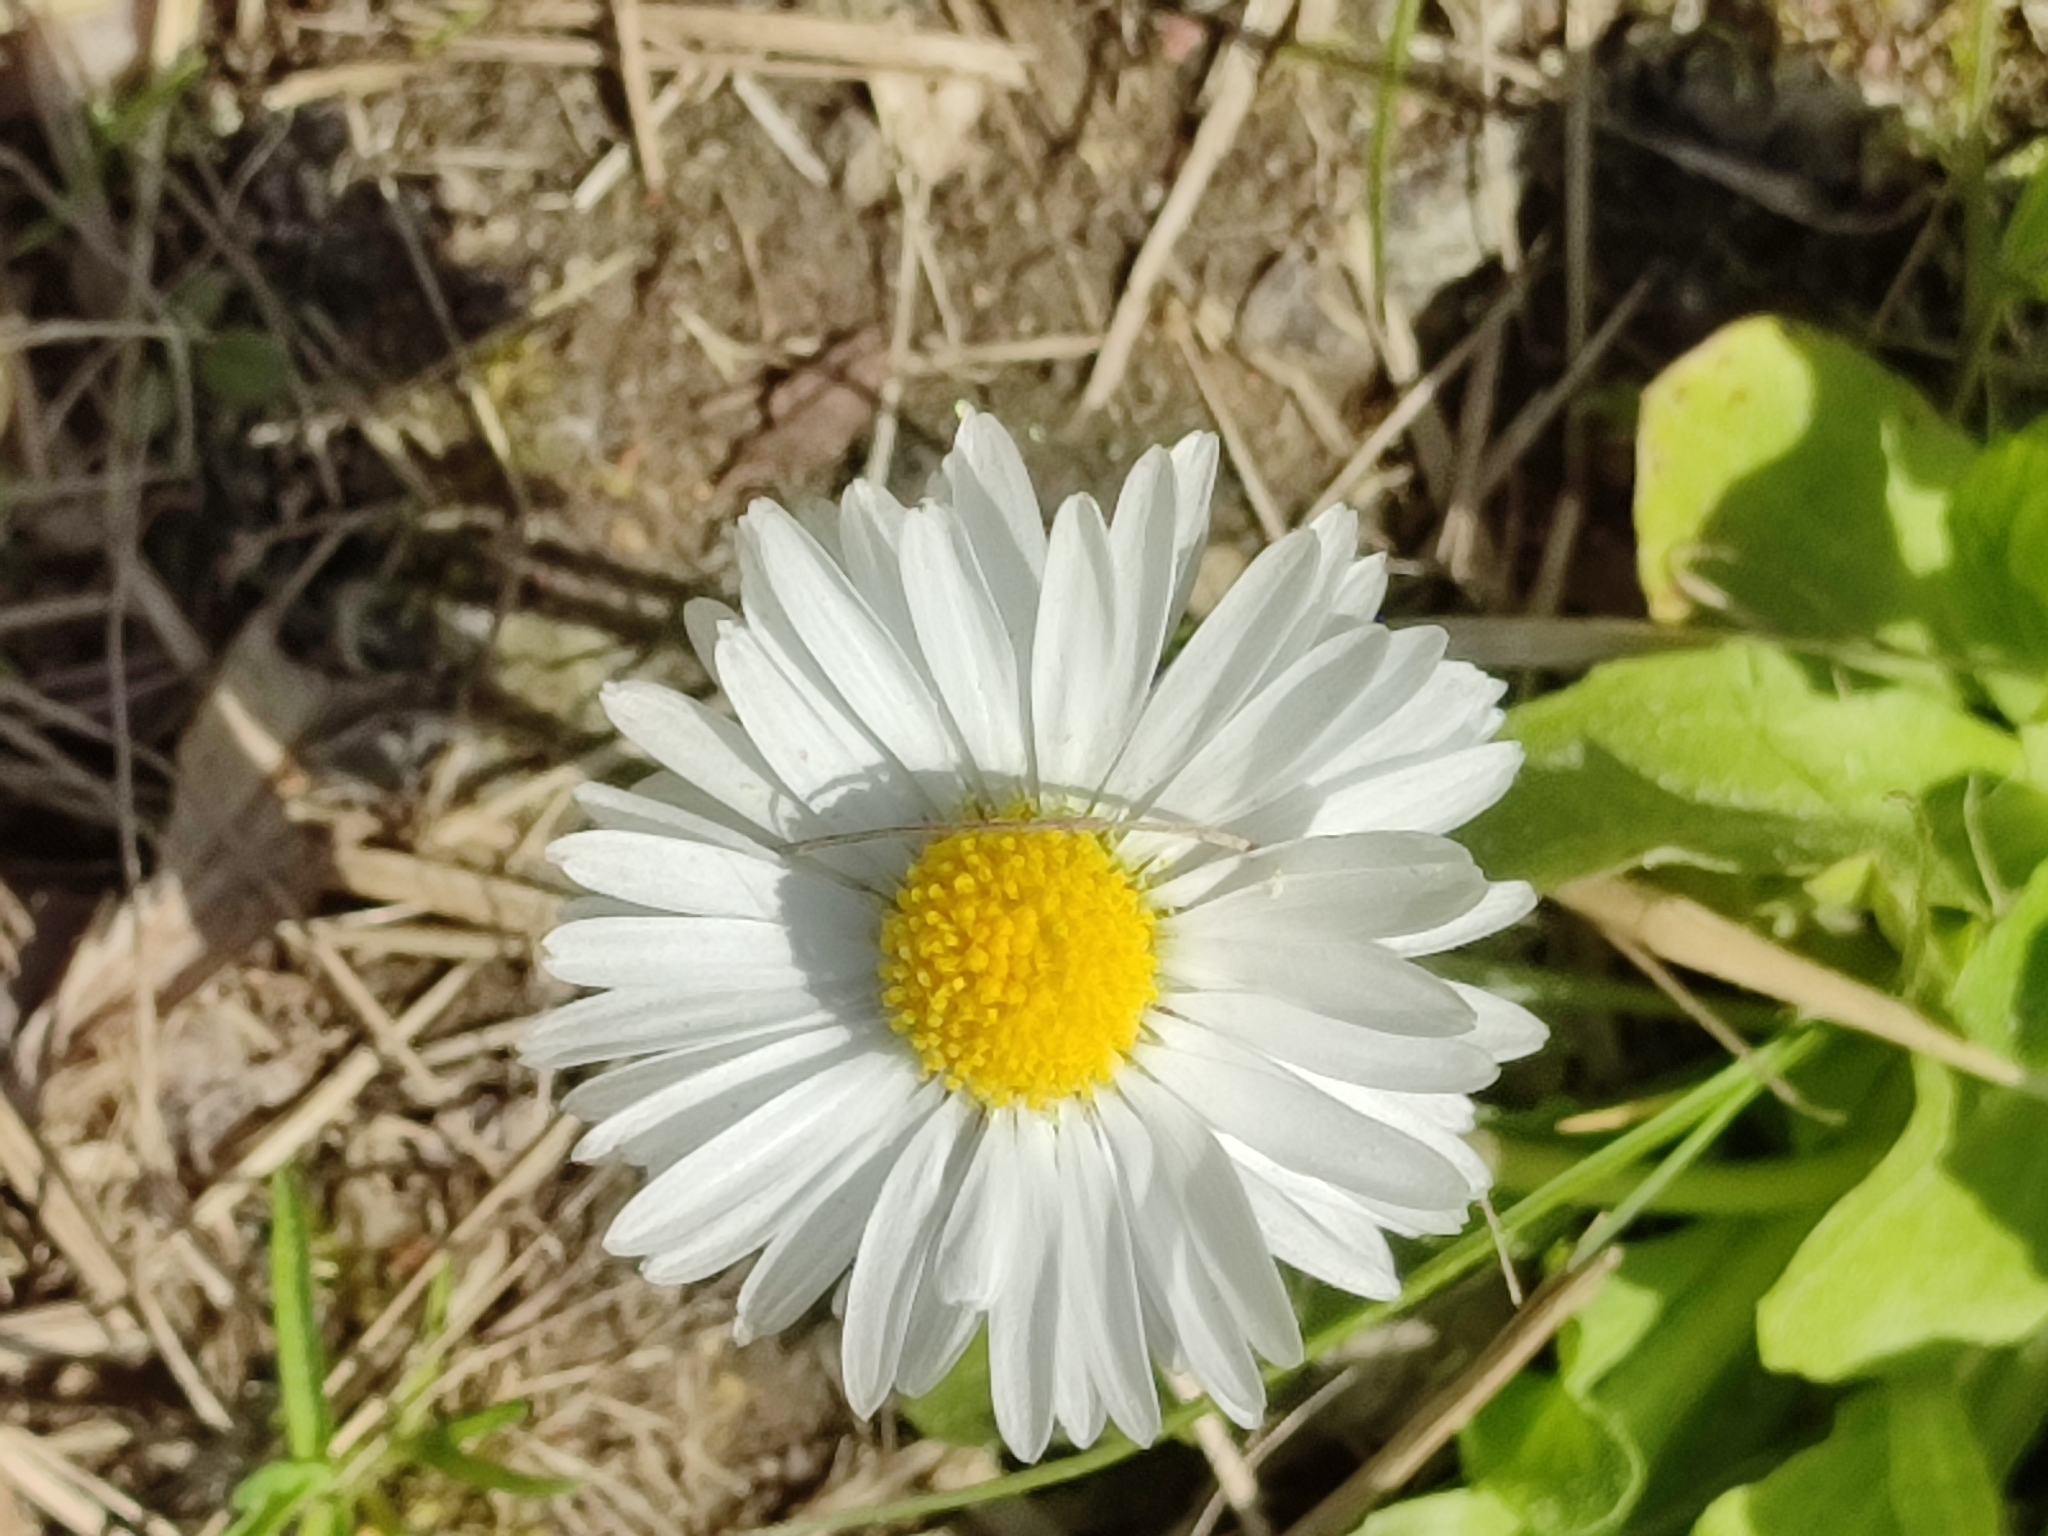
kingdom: Plantae
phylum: Tracheophyta
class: Magnoliopsida
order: Asterales
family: Asteraceae
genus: Bellis
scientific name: Bellis perennis
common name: Lawndaisy
